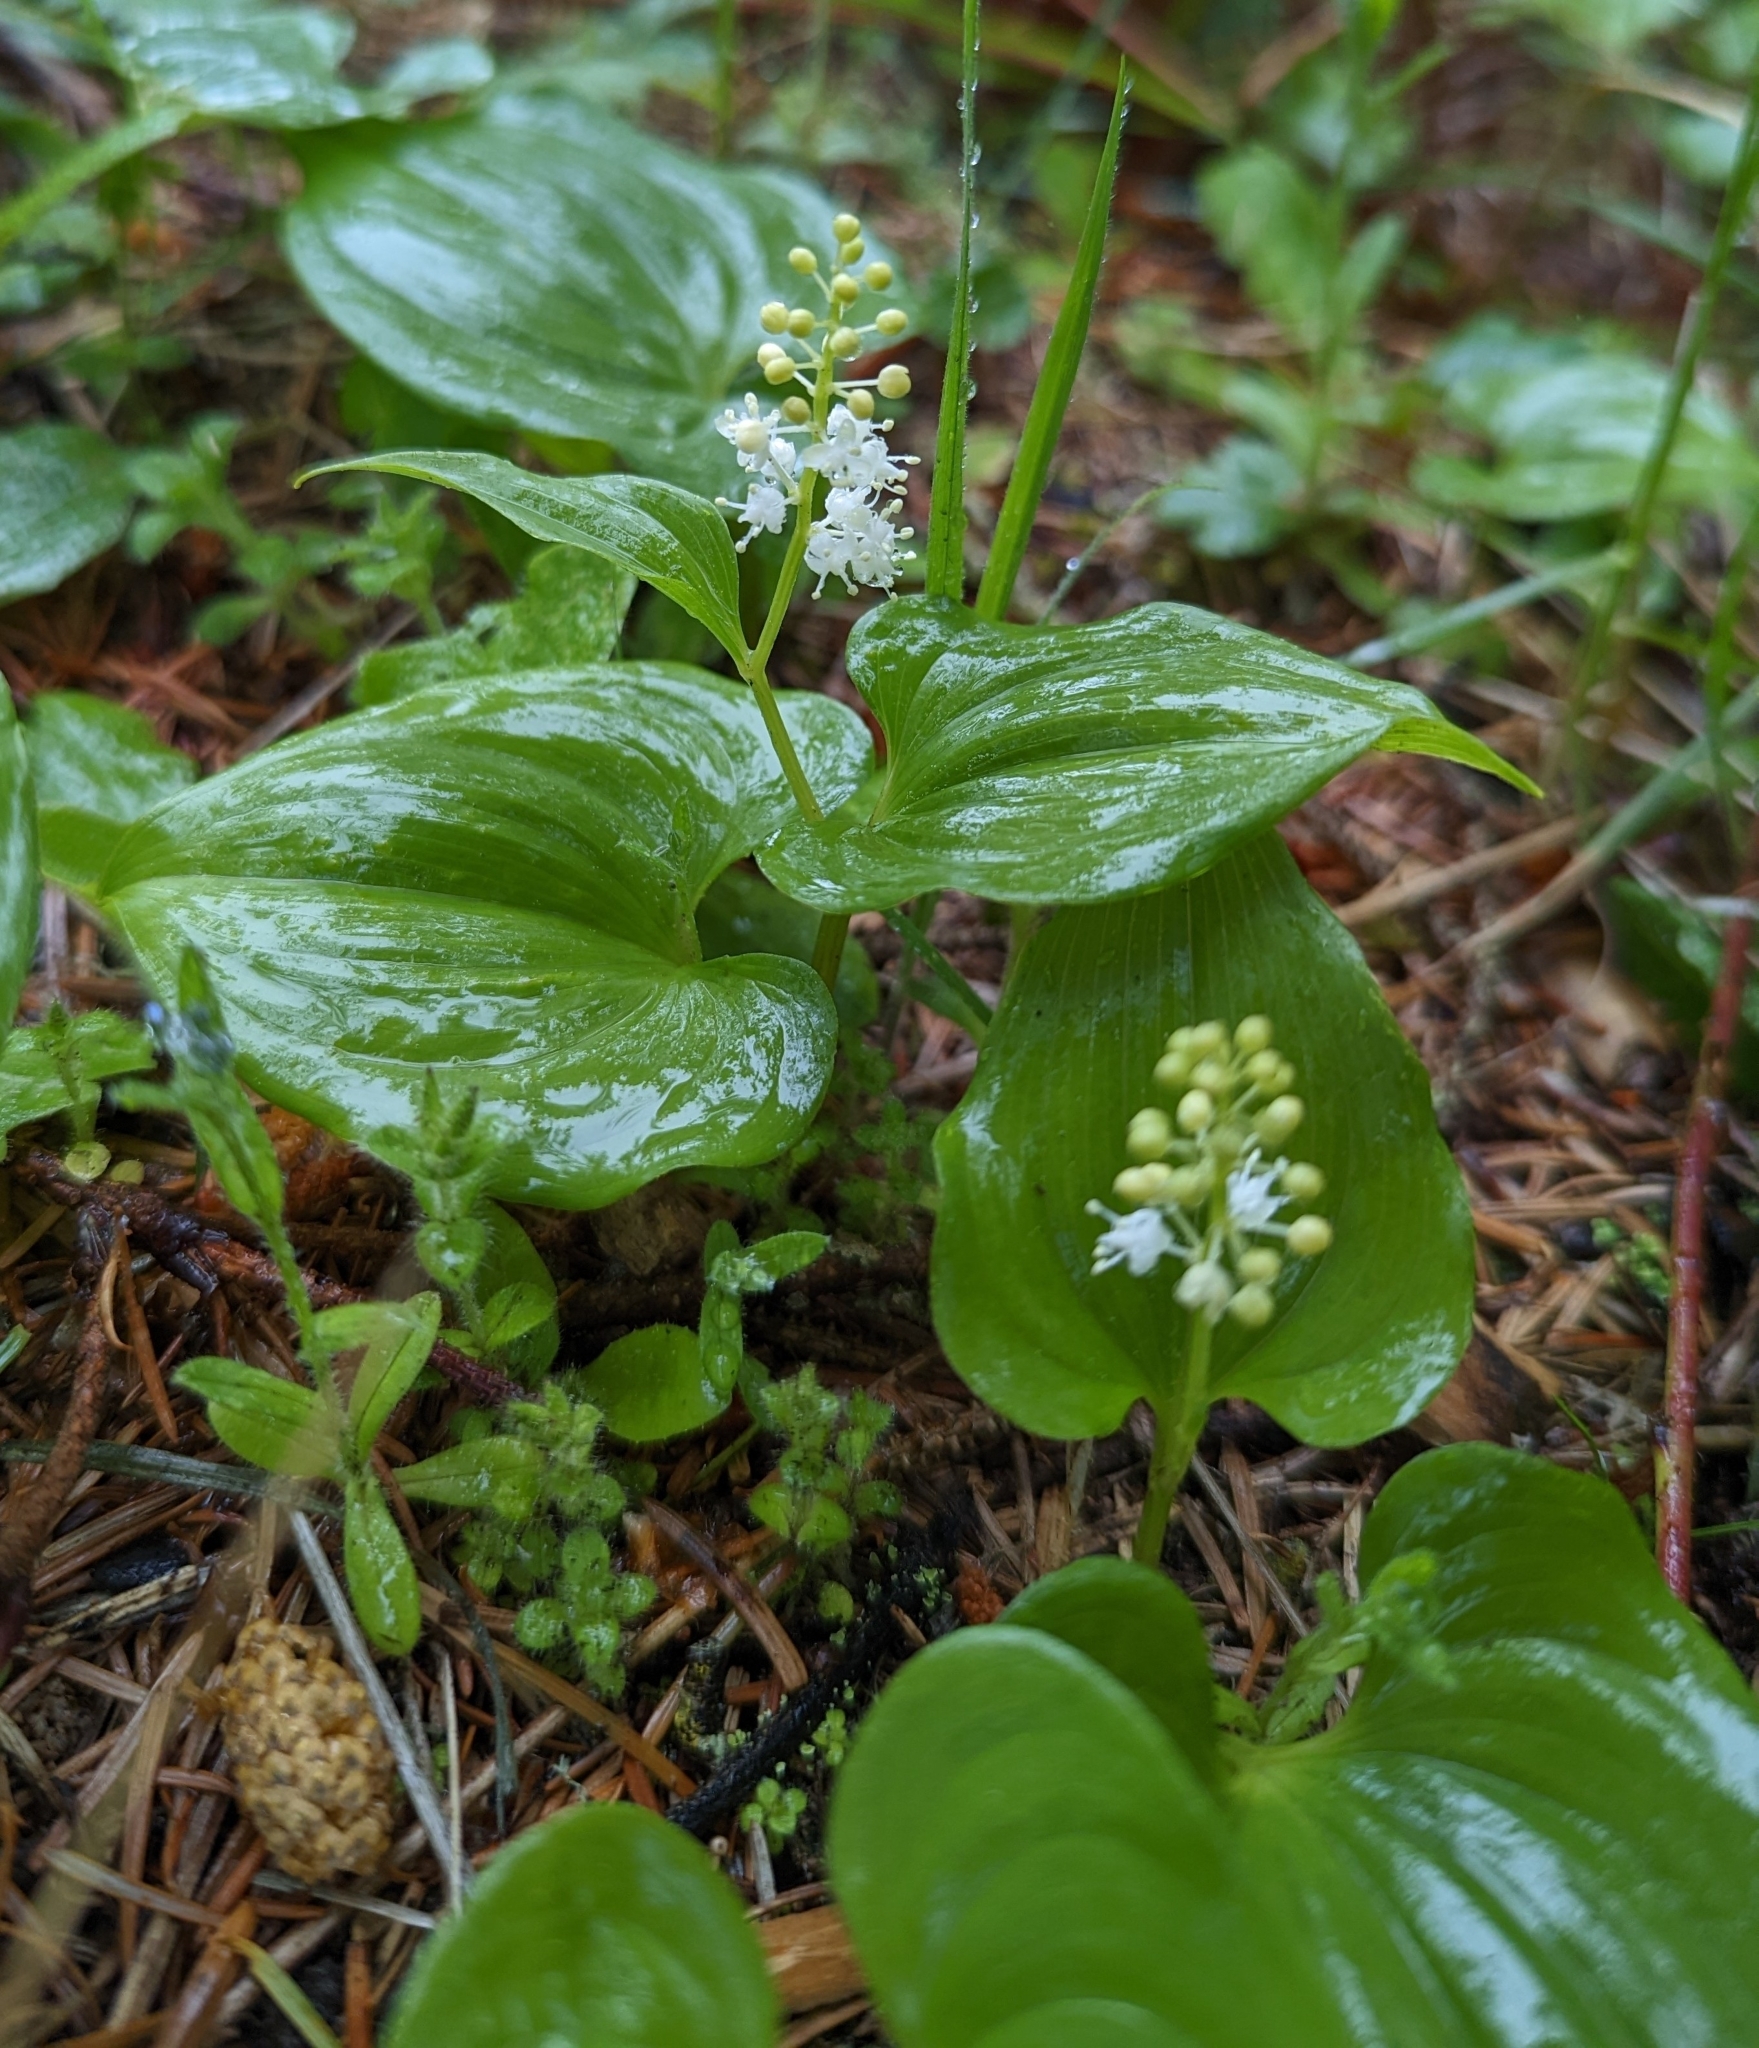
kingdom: Plantae
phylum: Tracheophyta
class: Liliopsida
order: Asparagales
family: Asparagaceae
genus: Maianthemum
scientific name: Maianthemum dilatatum
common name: False lily-of-the-valley
